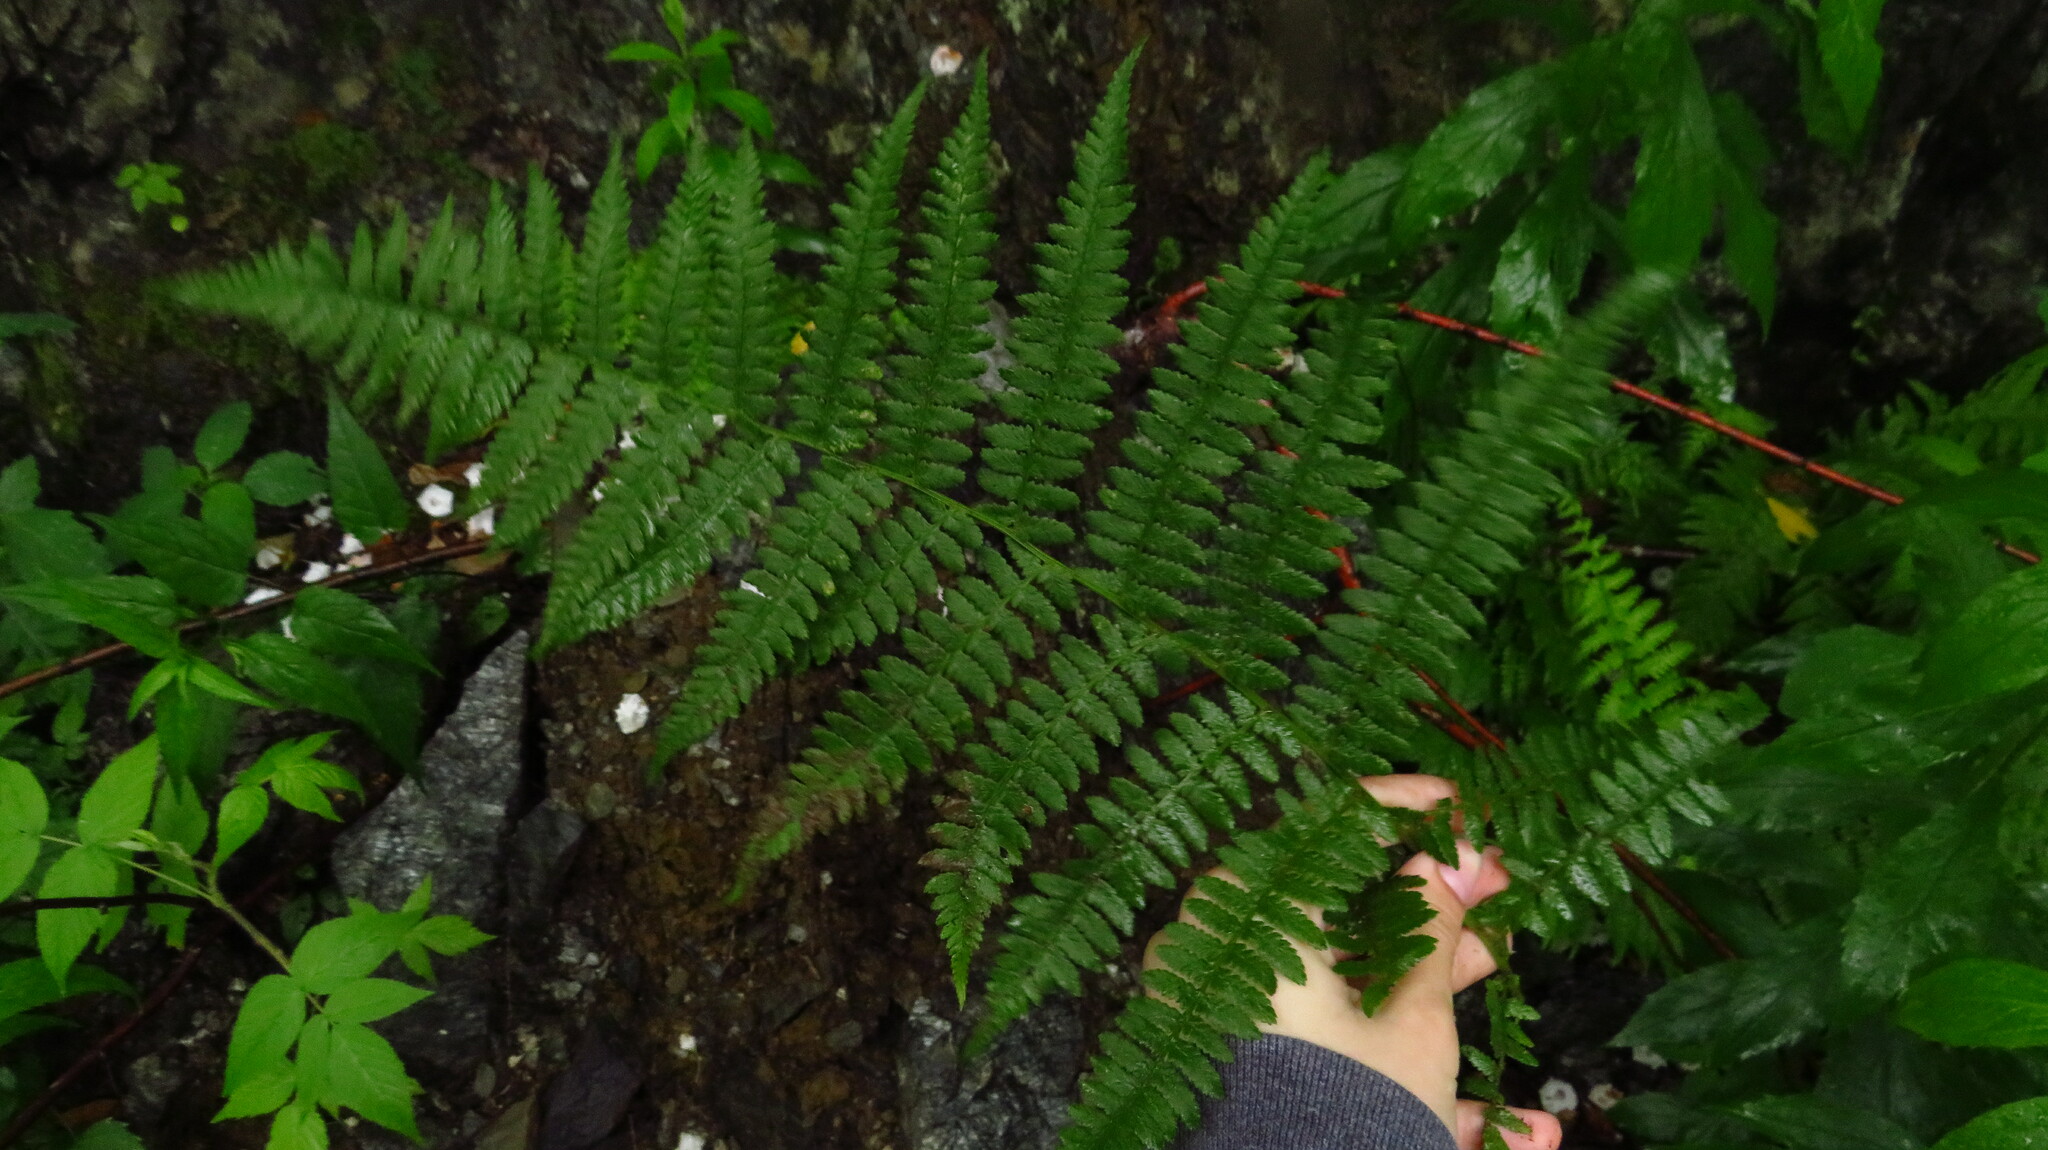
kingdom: Plantae
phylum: Tracheophyta
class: Polypodiopsida
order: Polypodiales
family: Athyriaceae
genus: Athyrium
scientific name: Athyrium angustum
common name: Northern lady fern
